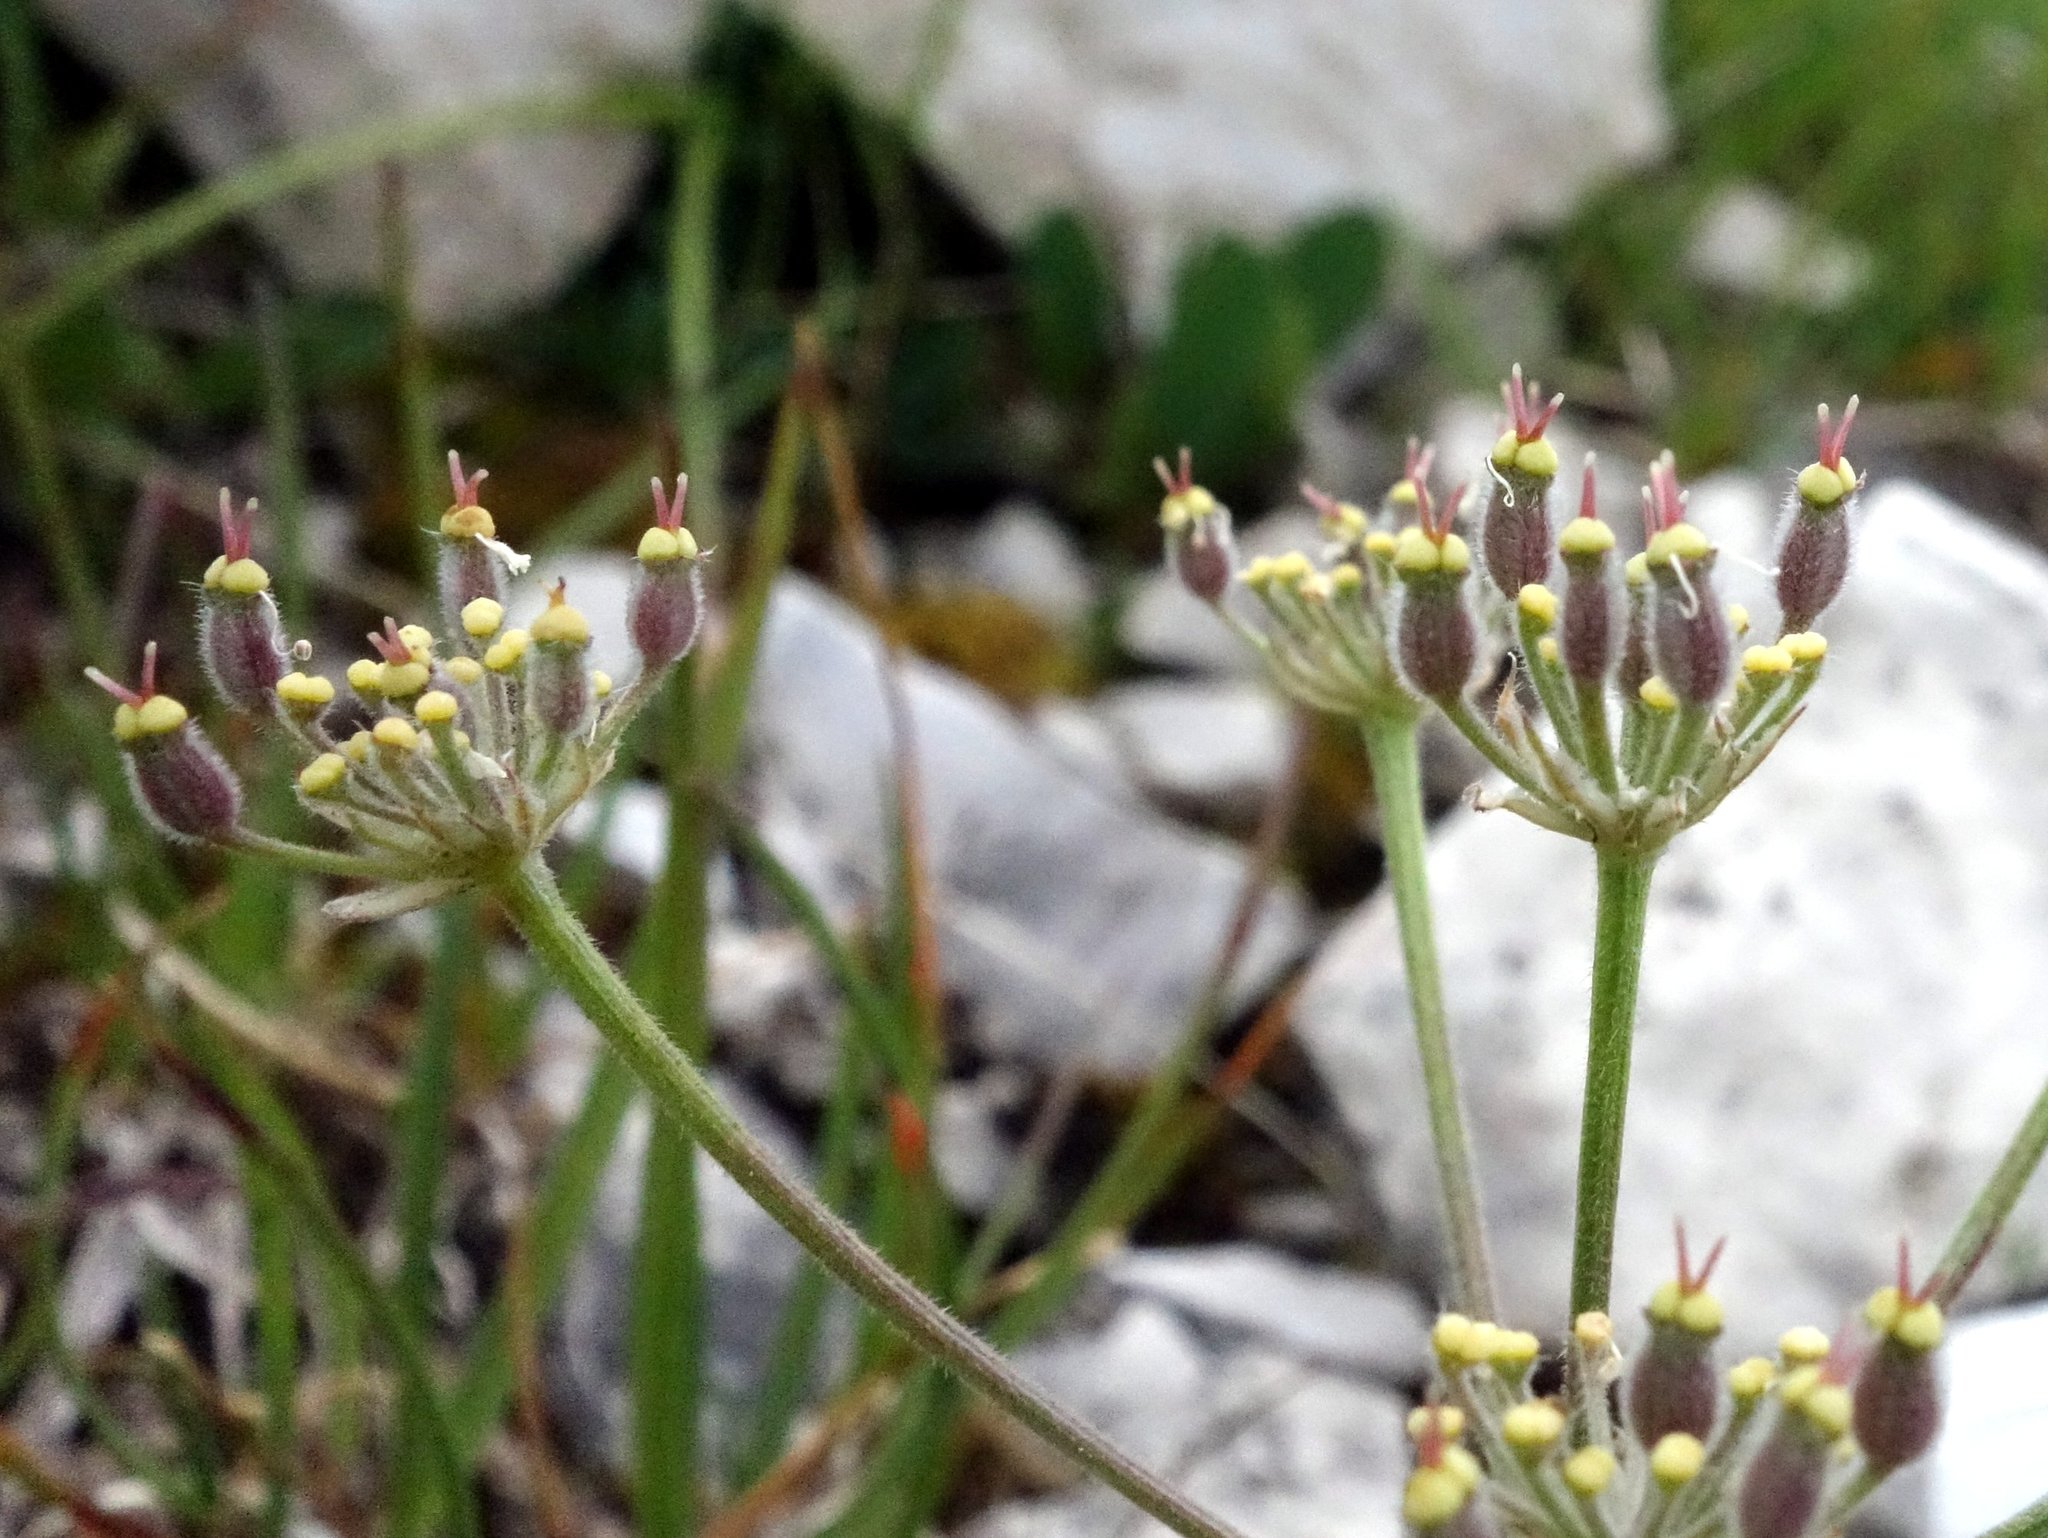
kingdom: Plantae
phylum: Tracheophyta
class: Magnoliopsida
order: Apiales
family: Apiaceae
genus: Athamanta
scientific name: Athamanta cretensis
